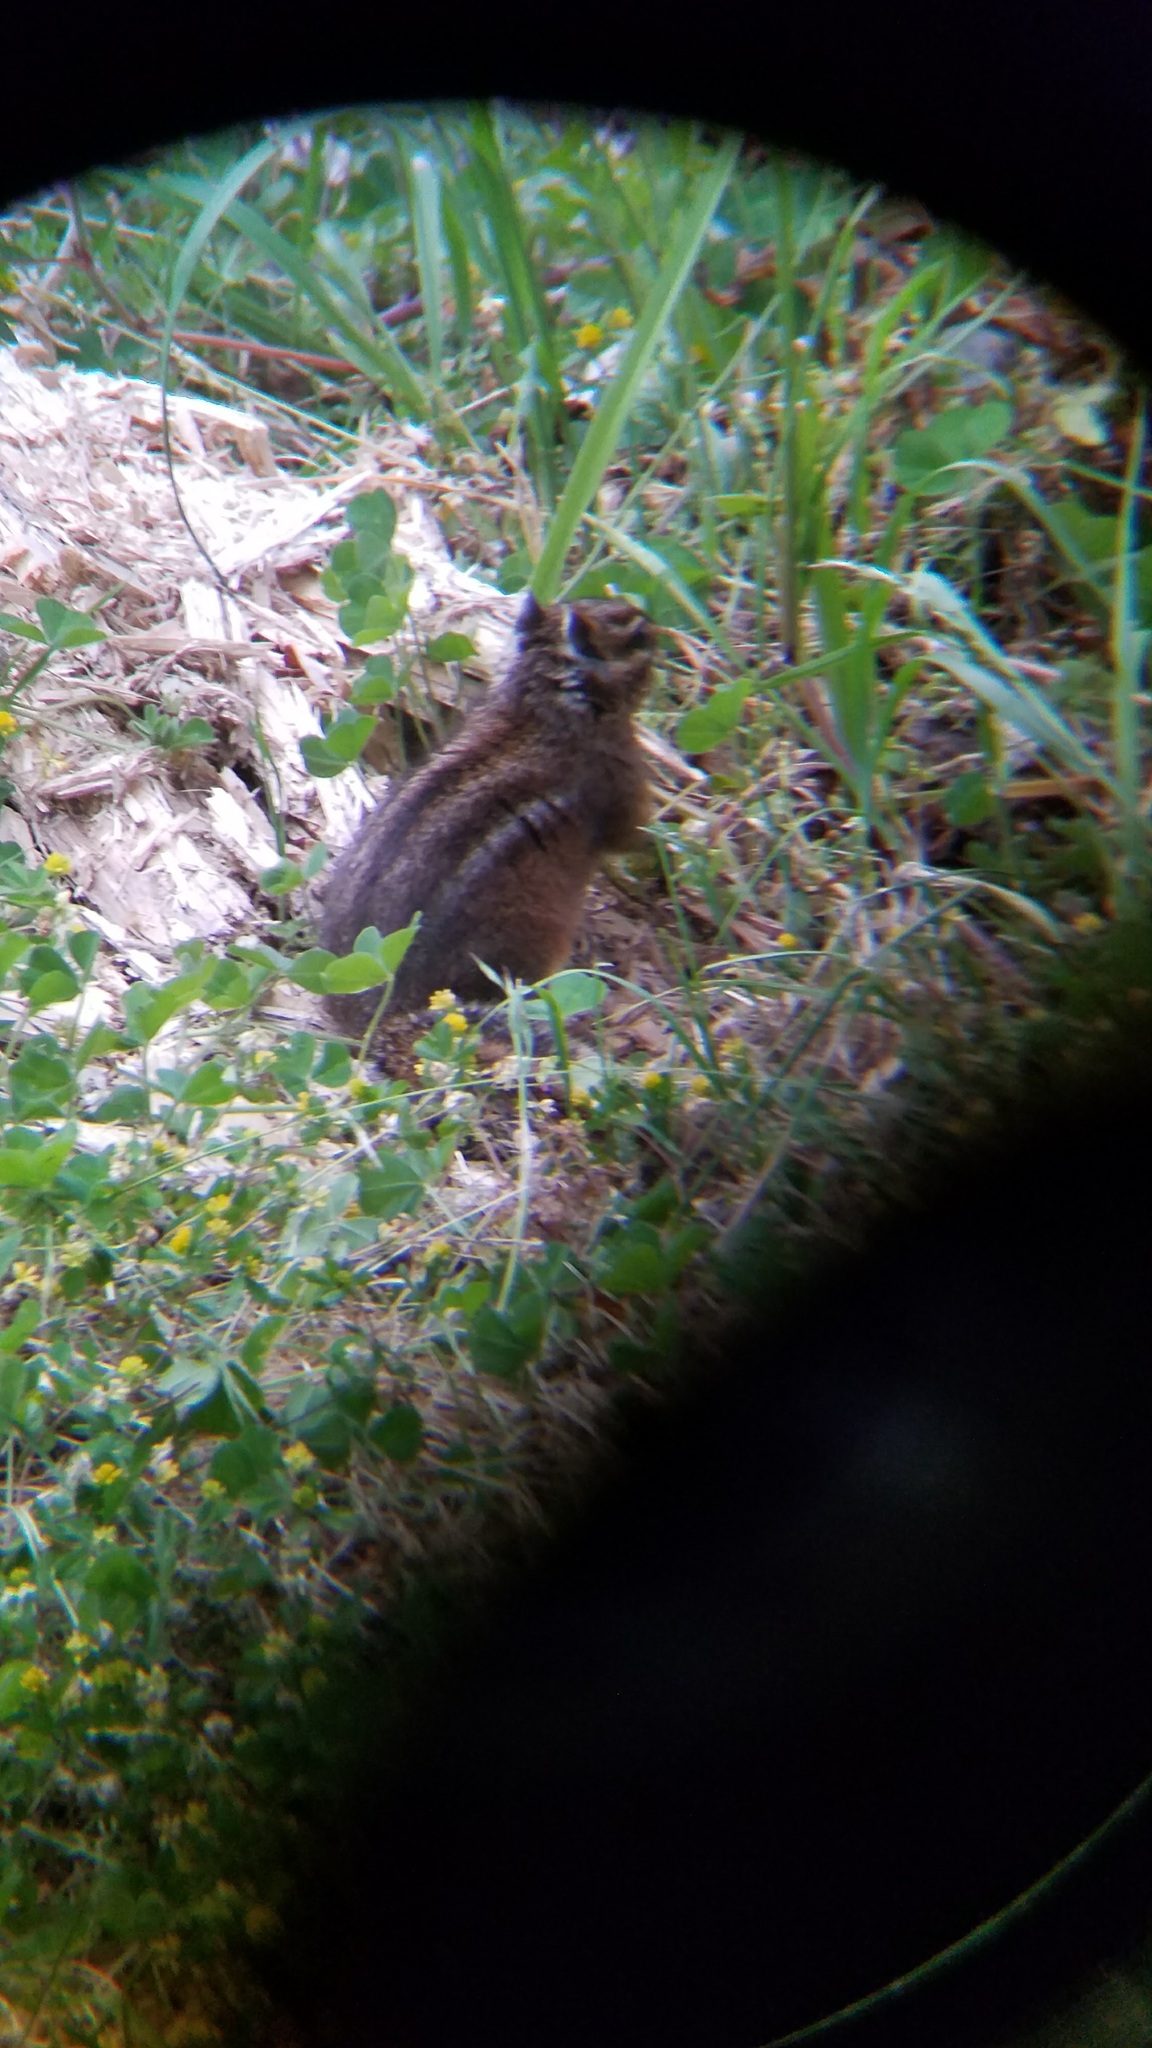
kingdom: Animalia
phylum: Chordata
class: Mammalia
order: Rodentia
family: Sciuridae
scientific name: Sciuridae
